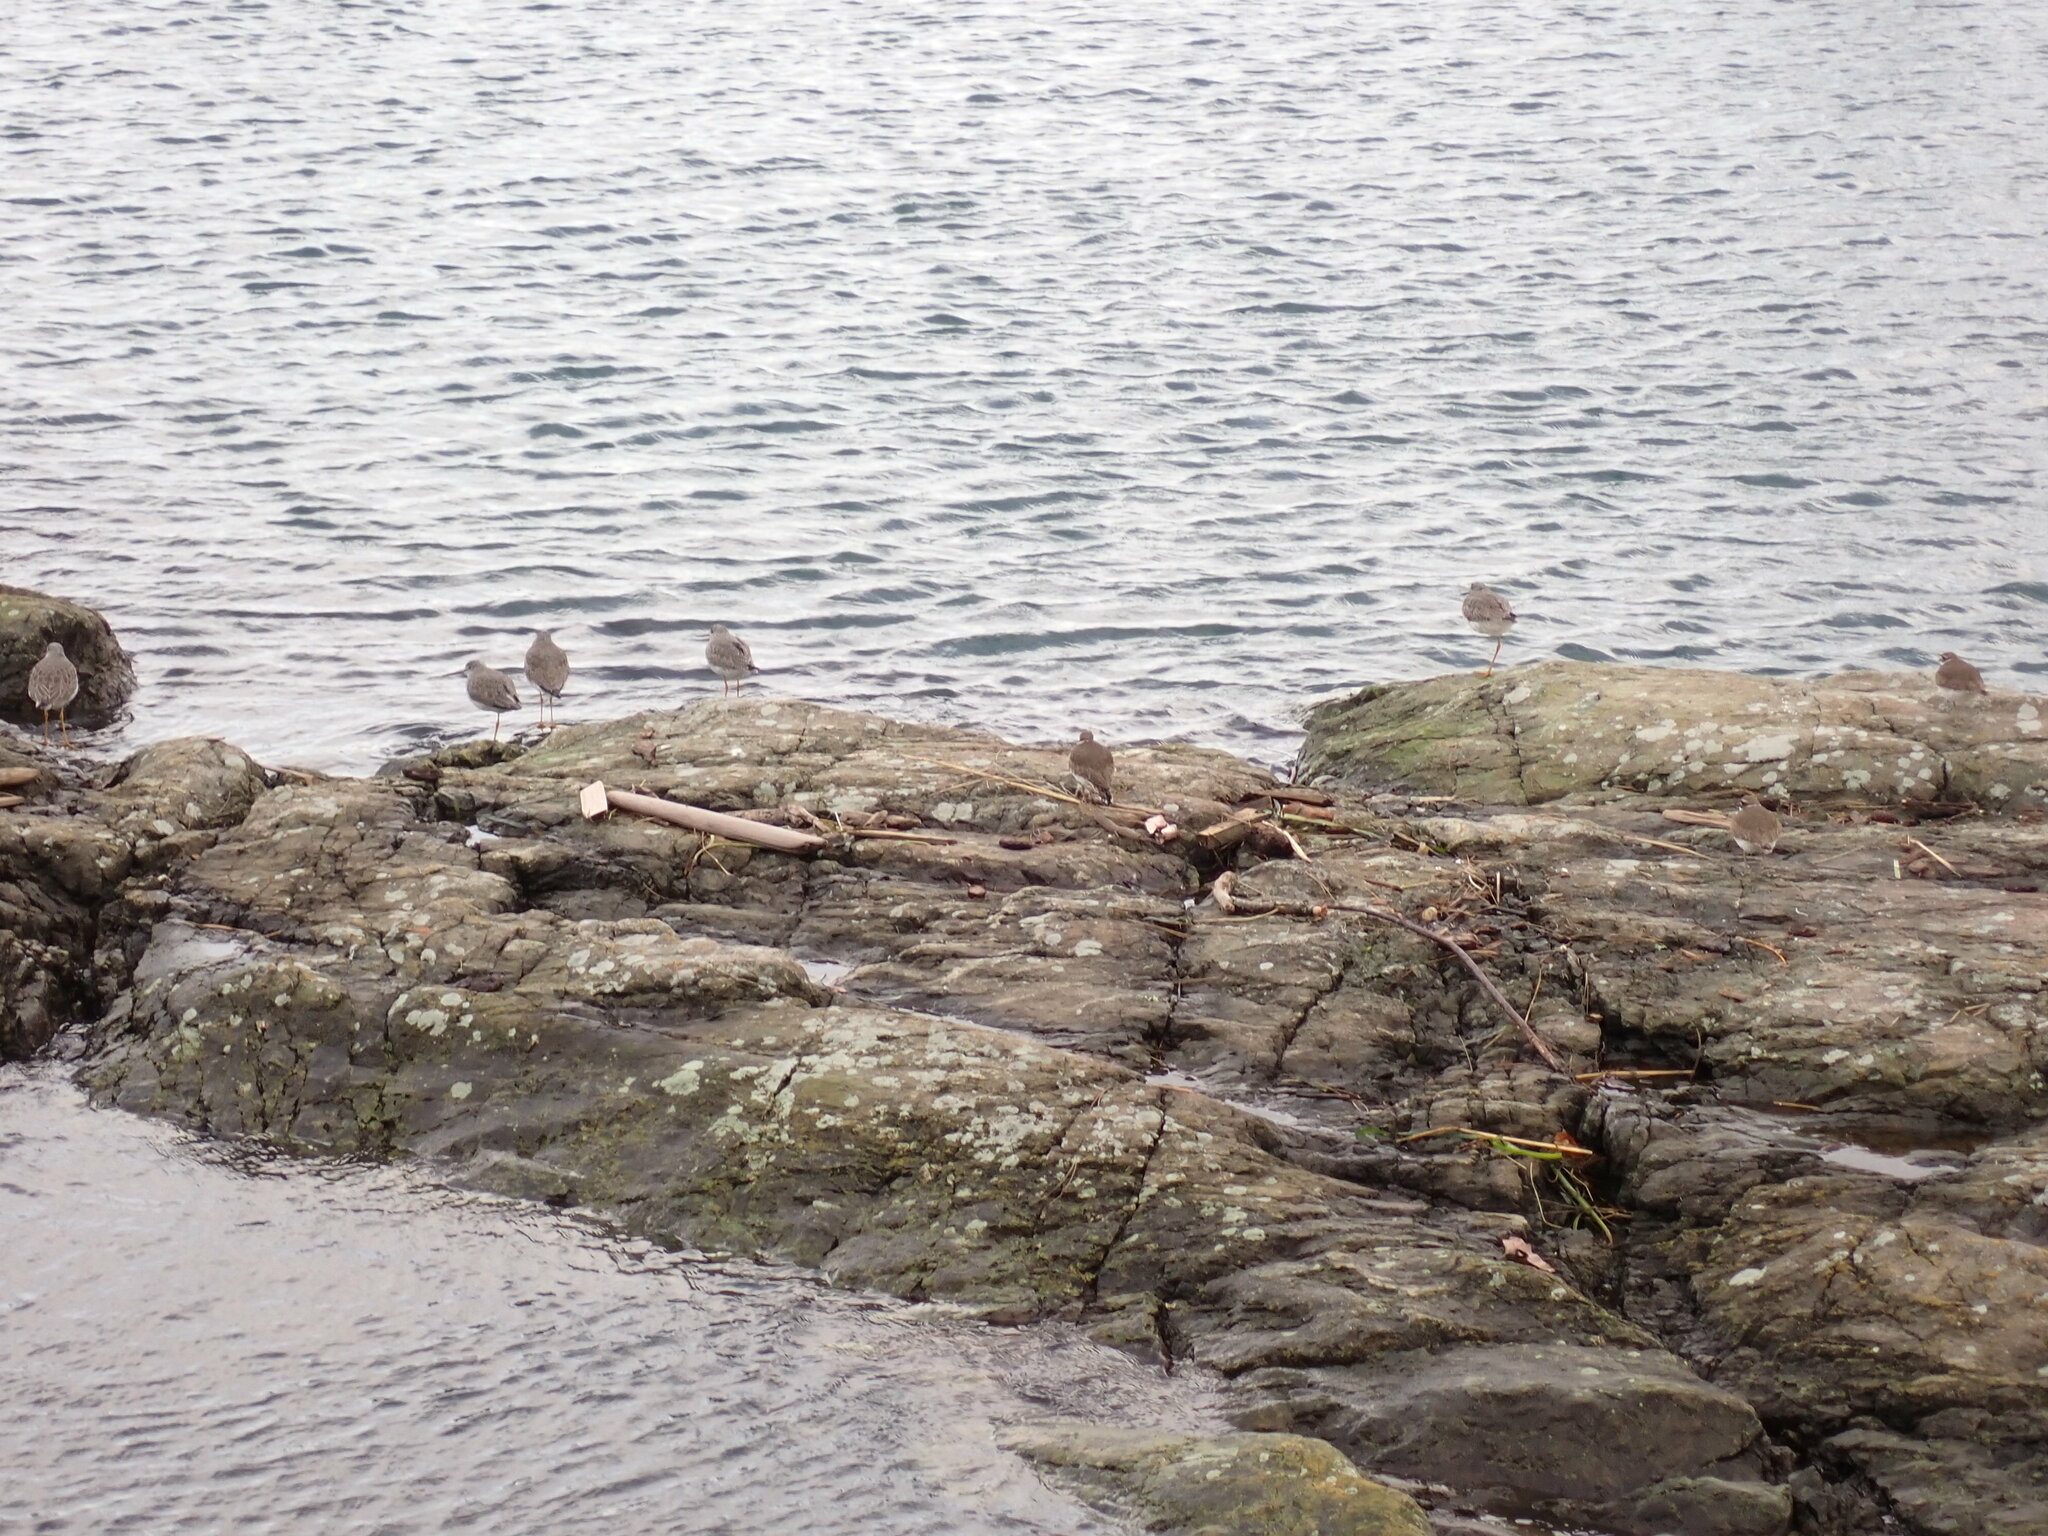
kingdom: Animalia
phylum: Chordata
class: Aves
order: Charadriiformes
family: Scolopacidae
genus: Tringa
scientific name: Tringa melanoleuca
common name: Greater yellowlegs
